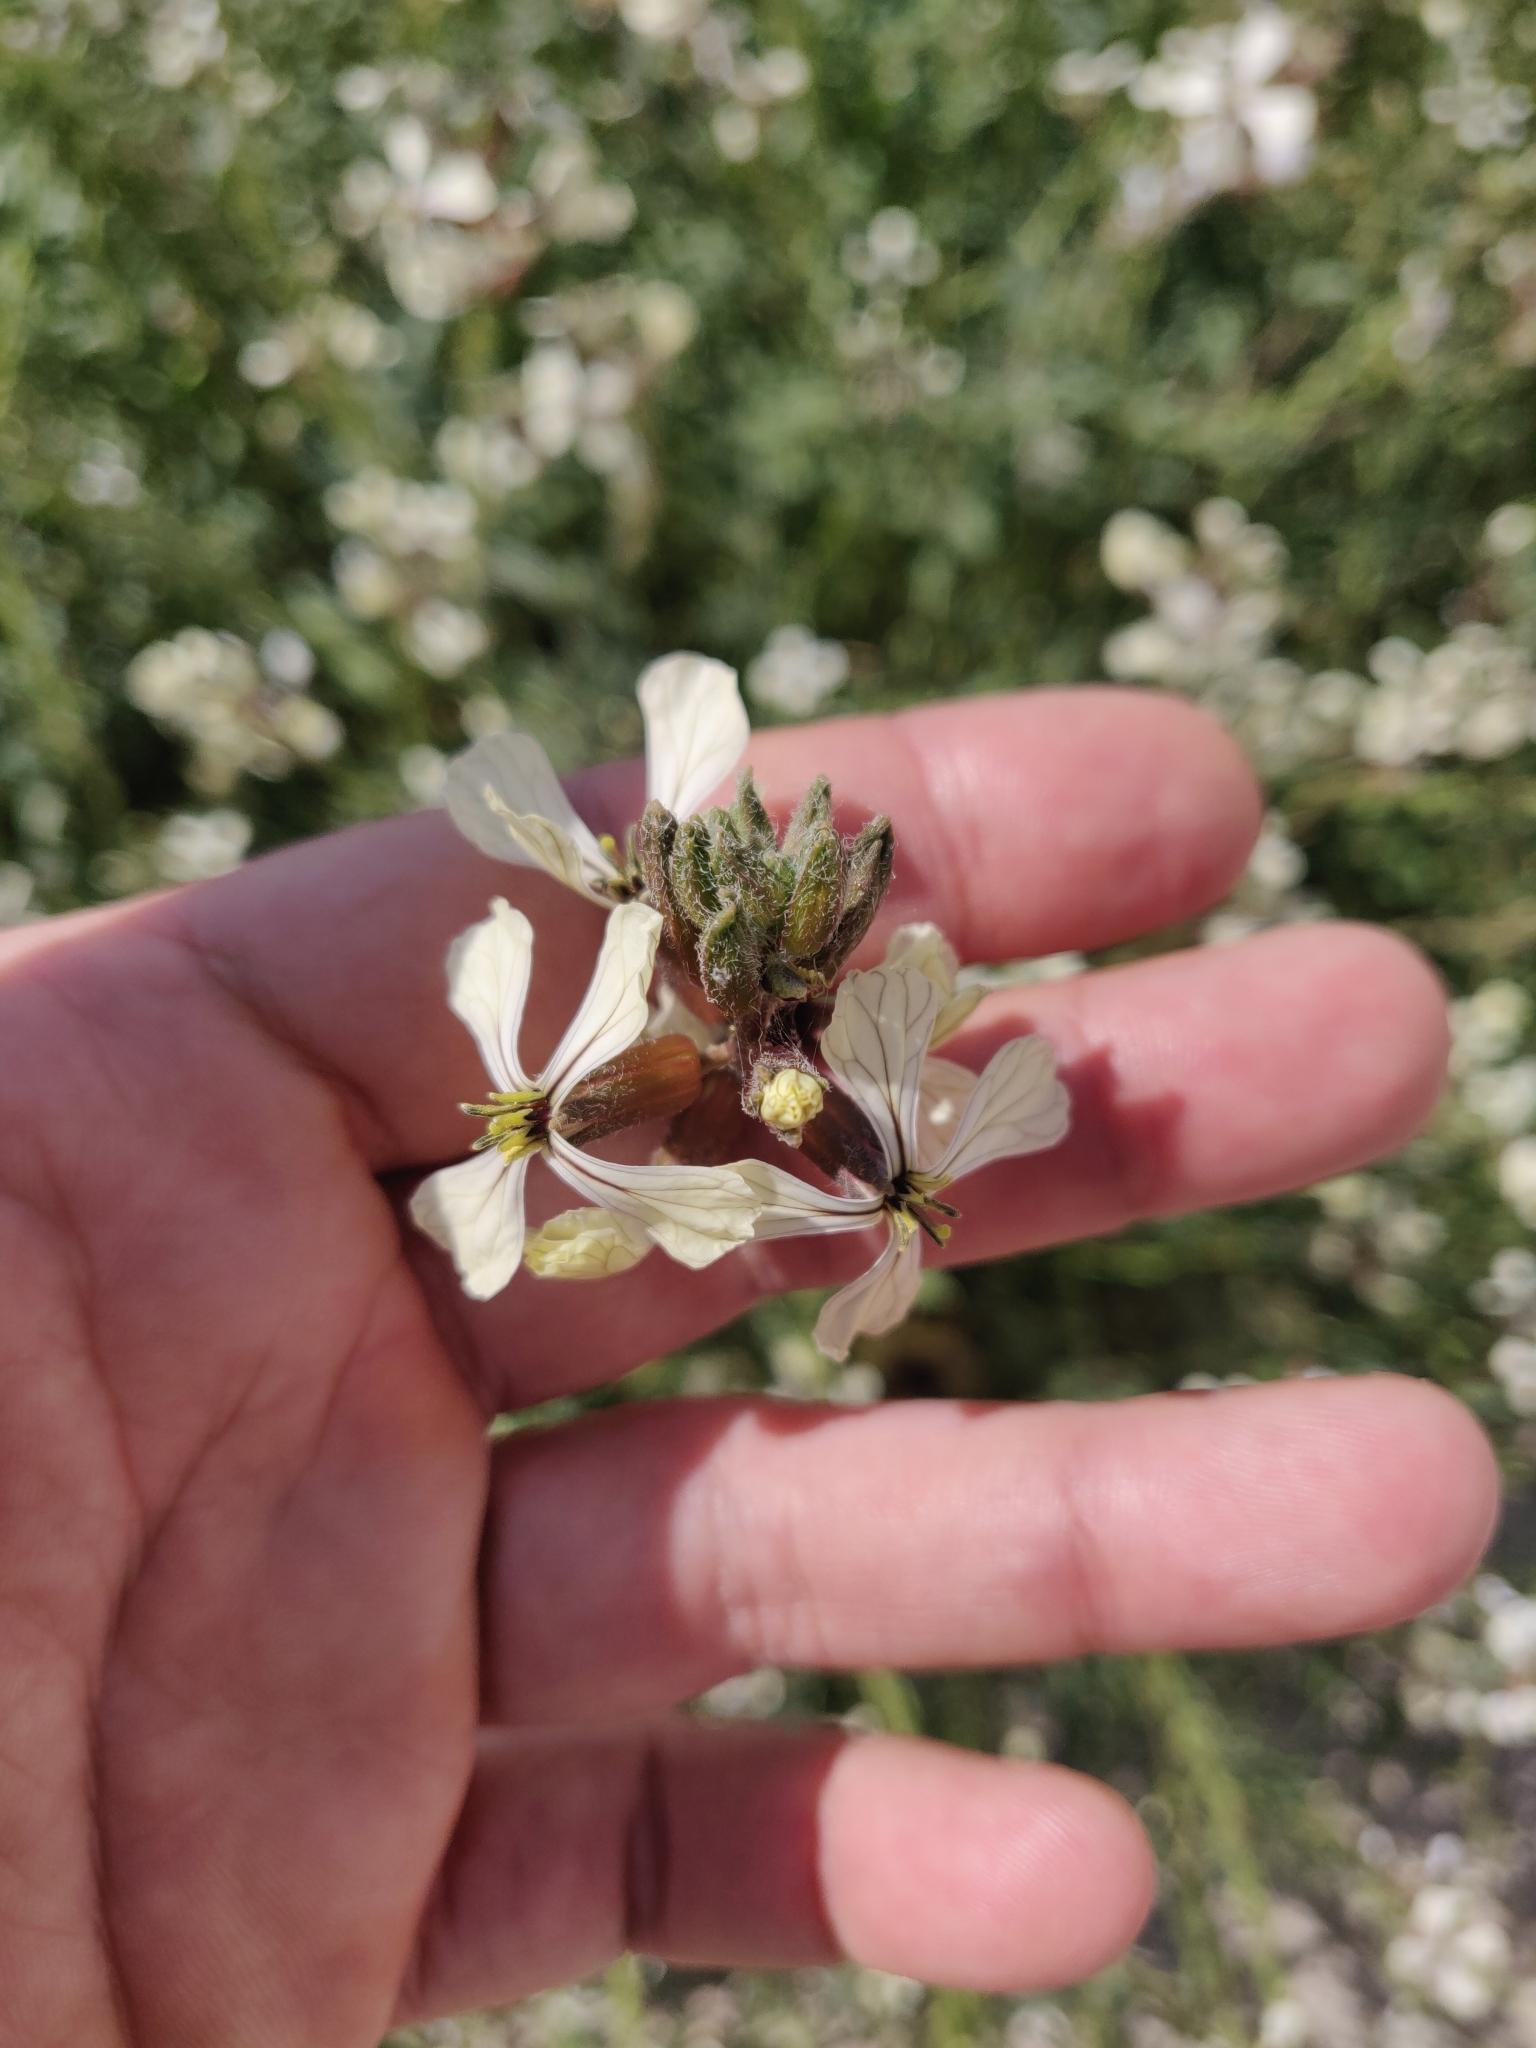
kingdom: Plantae
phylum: Tracheophyta
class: Magnoliopsida
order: Brassicales
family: Brassicaceae
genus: Eruca
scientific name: Eruca vesicaria
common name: Garden rocket
